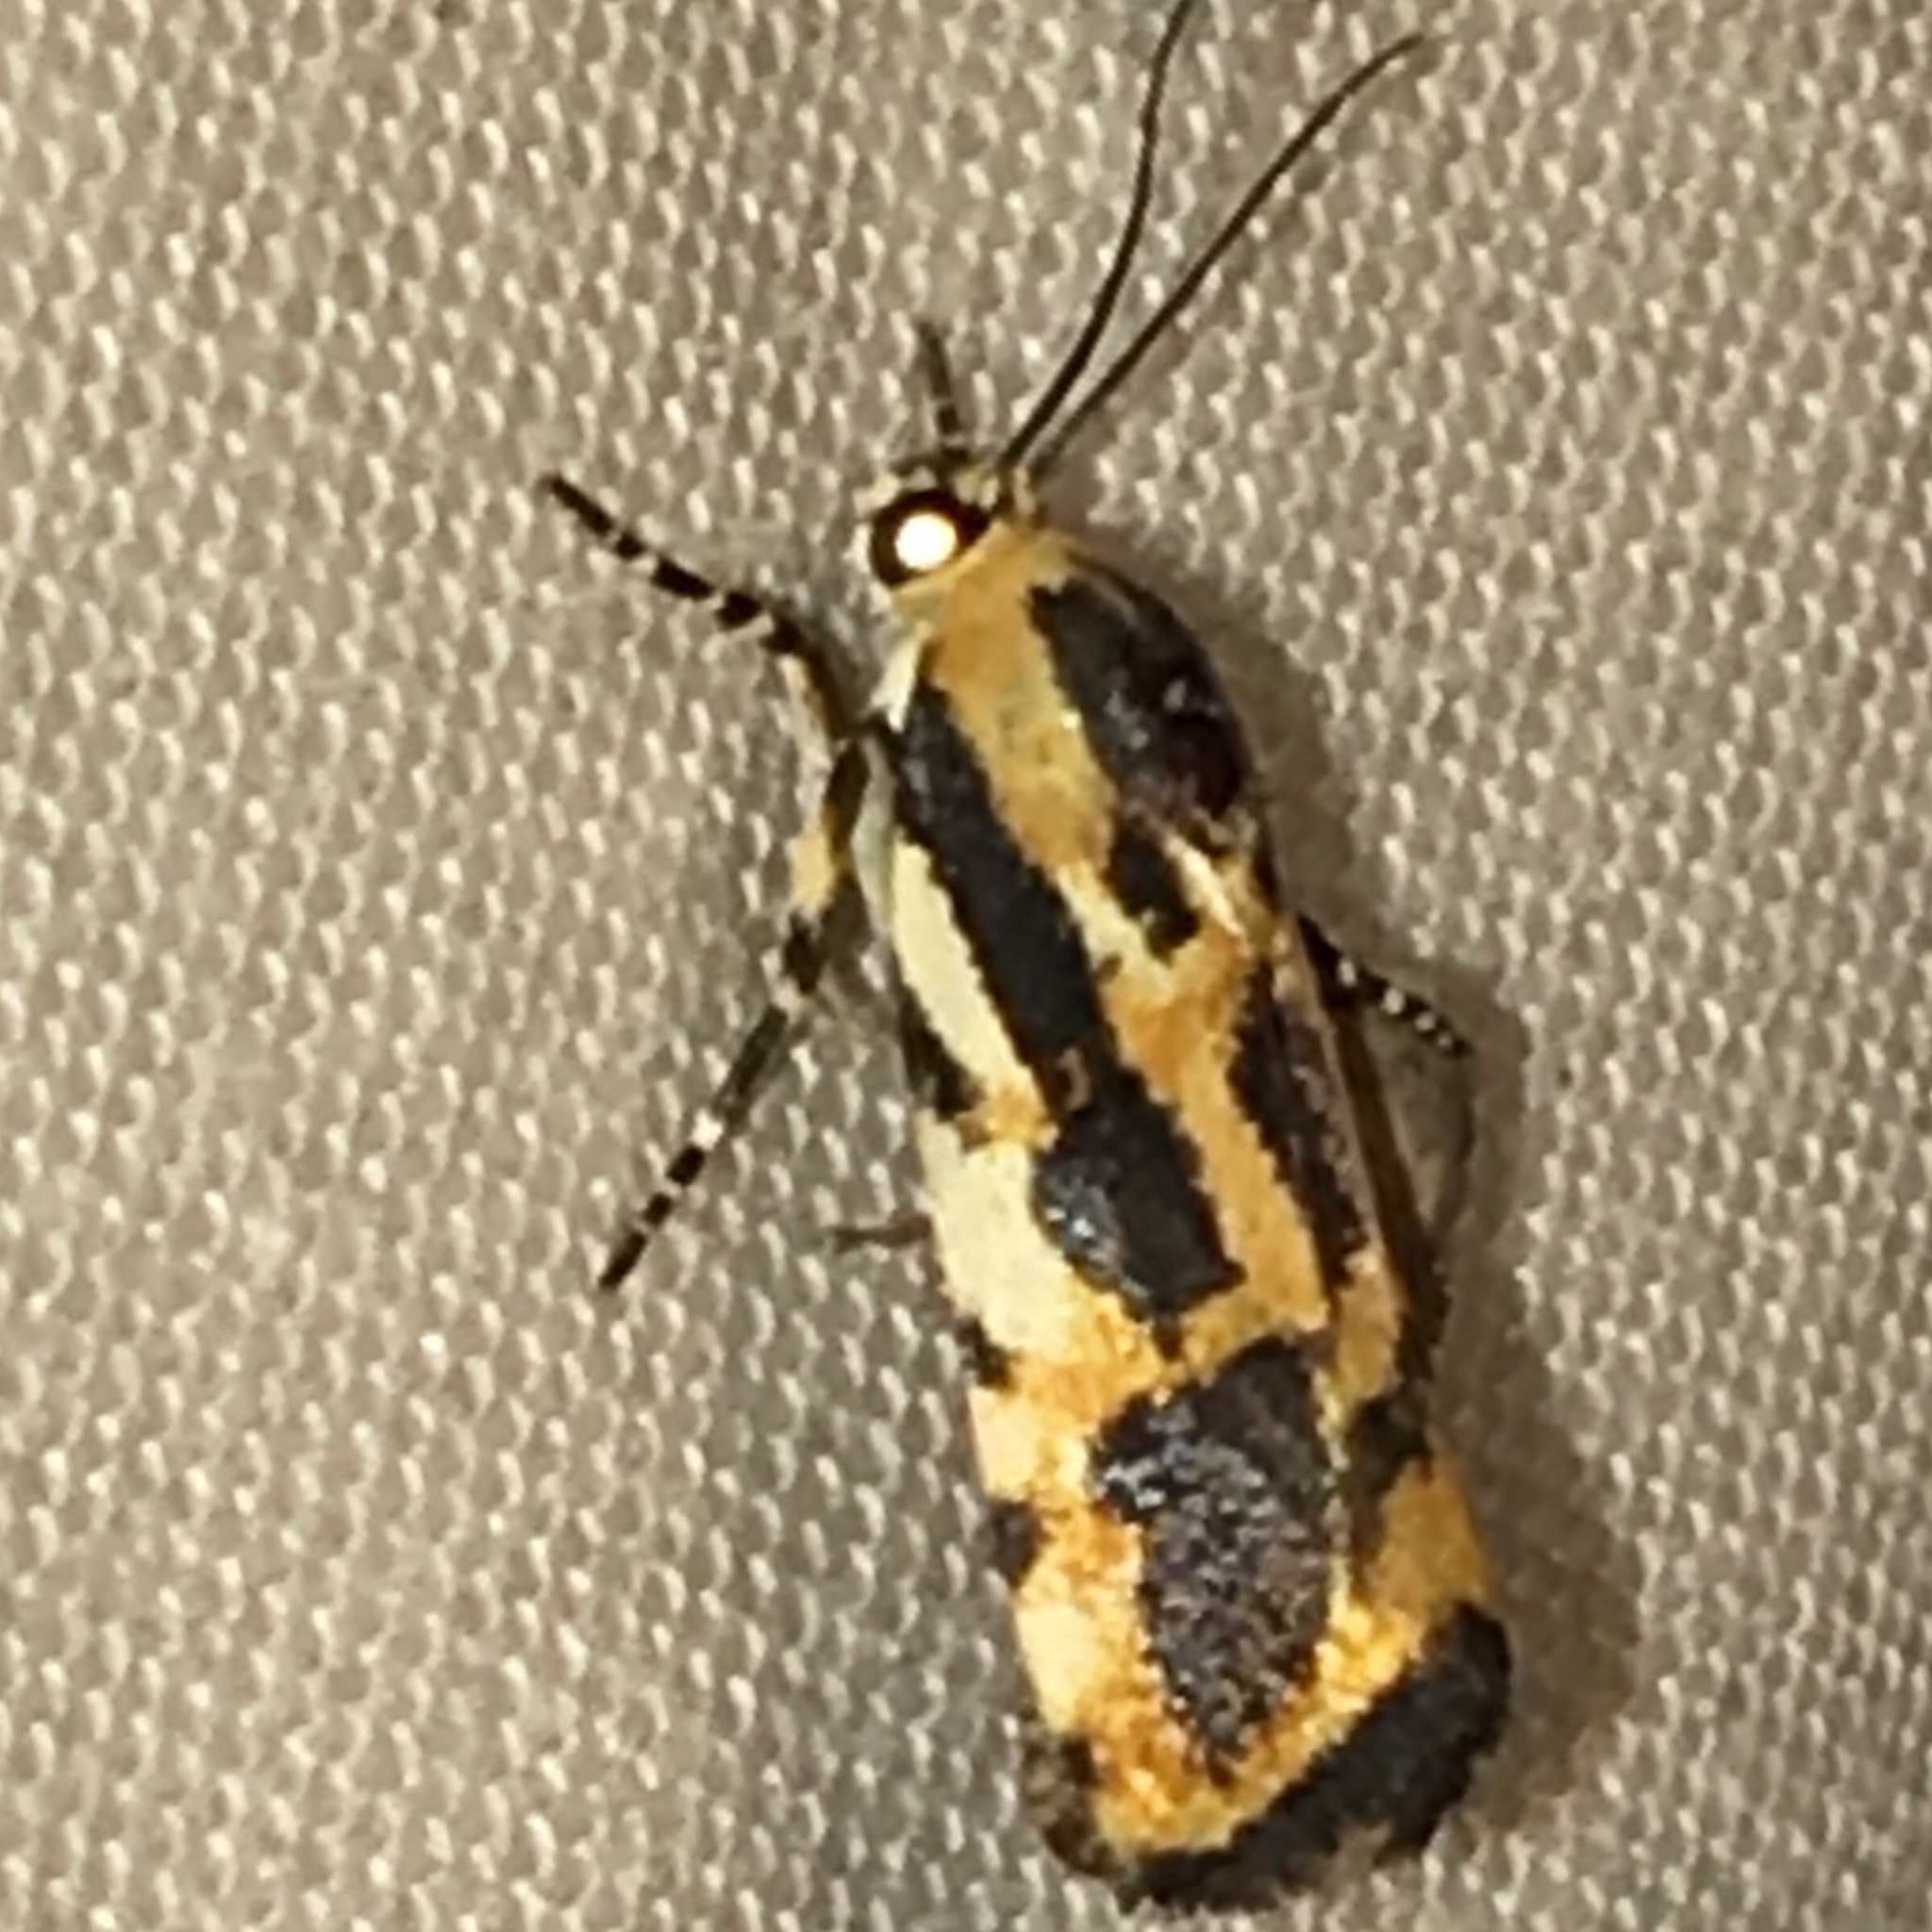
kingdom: Animalia
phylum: Arthropoda
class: Insecta
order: Lepidoptera
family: Noctuidae
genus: Acontia
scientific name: Acontia leo
